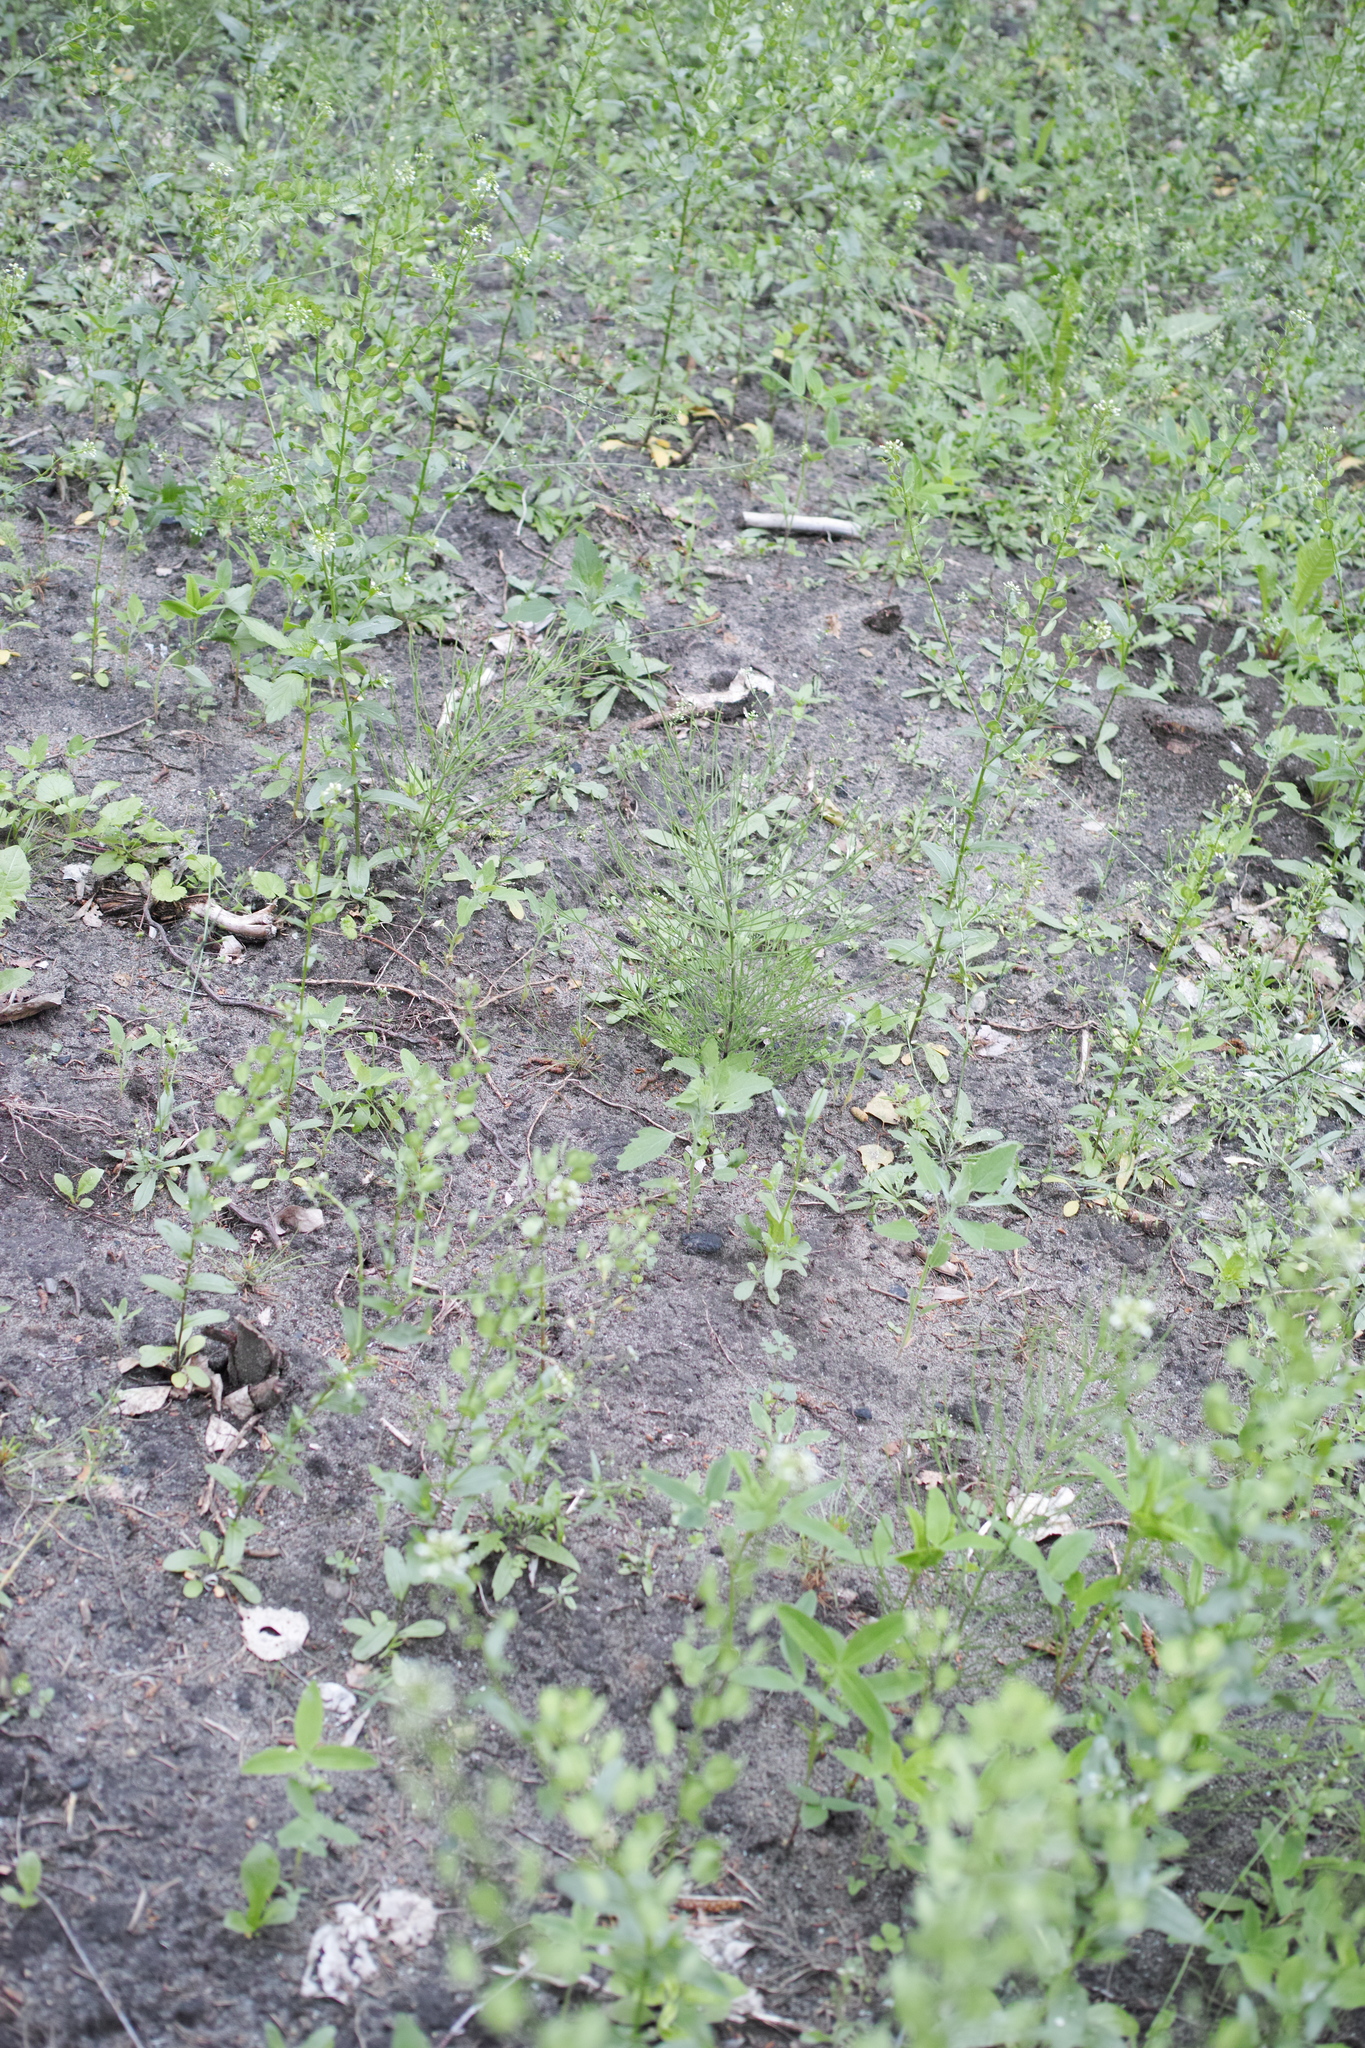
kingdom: Plantae
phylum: Tracheophyta
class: Polypodiopsida
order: Equisetales
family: Equisetaceae
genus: Equisetum
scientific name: Equisetum arvense
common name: Field horsetail
